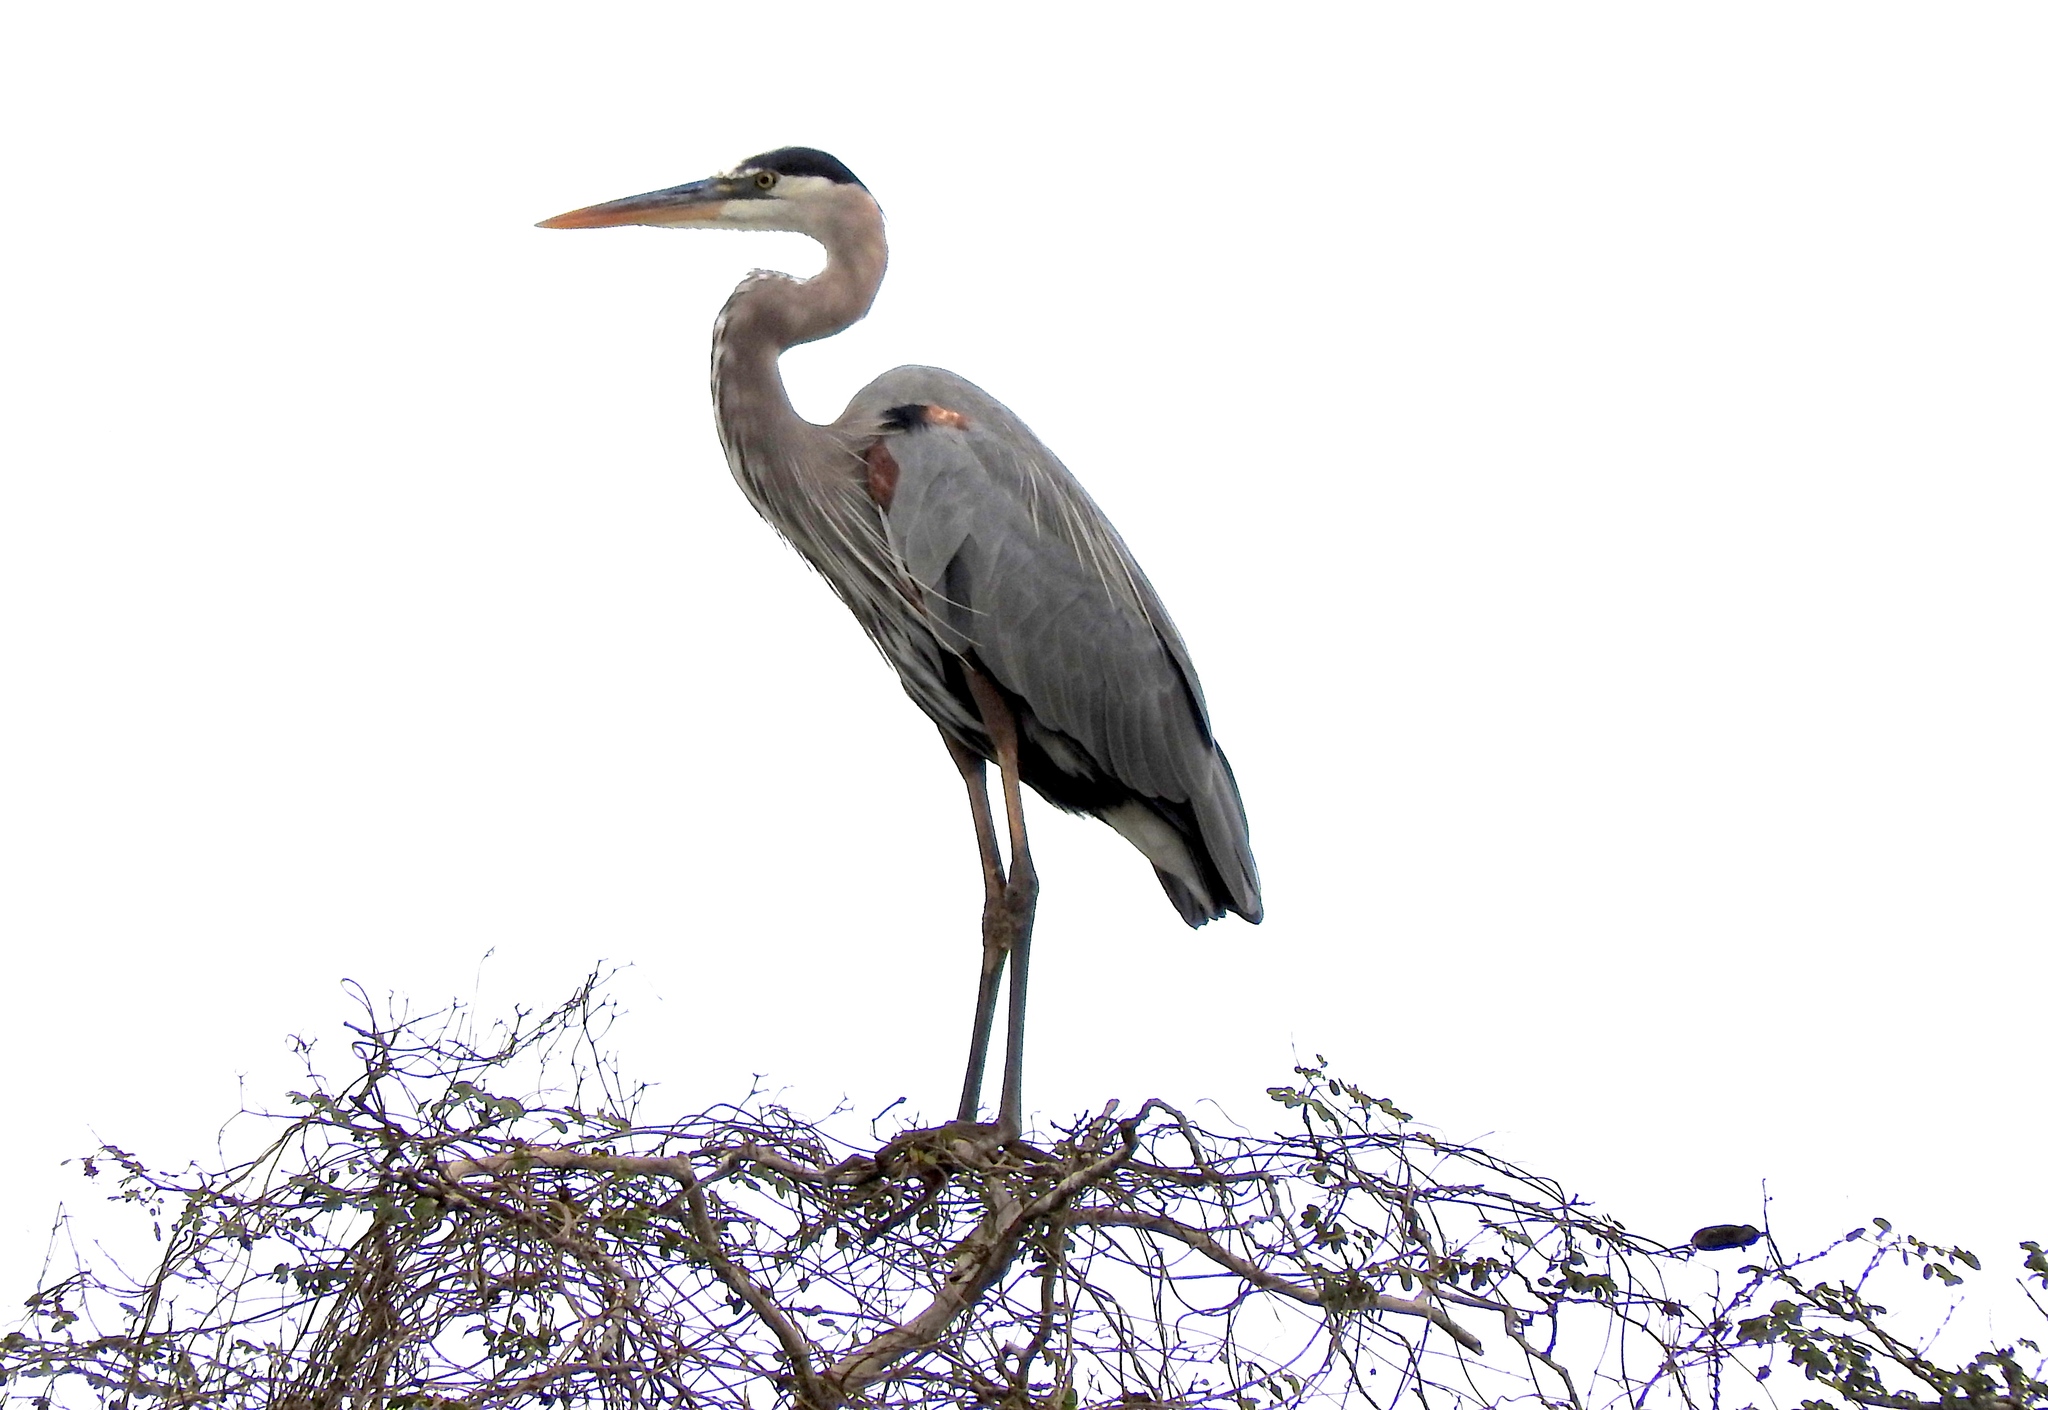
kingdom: Animalia
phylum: Chordata
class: Aves
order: Pelecaniformes
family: Ardeidae
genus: Ardea
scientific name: Ardea herodias
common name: Great blue heron
